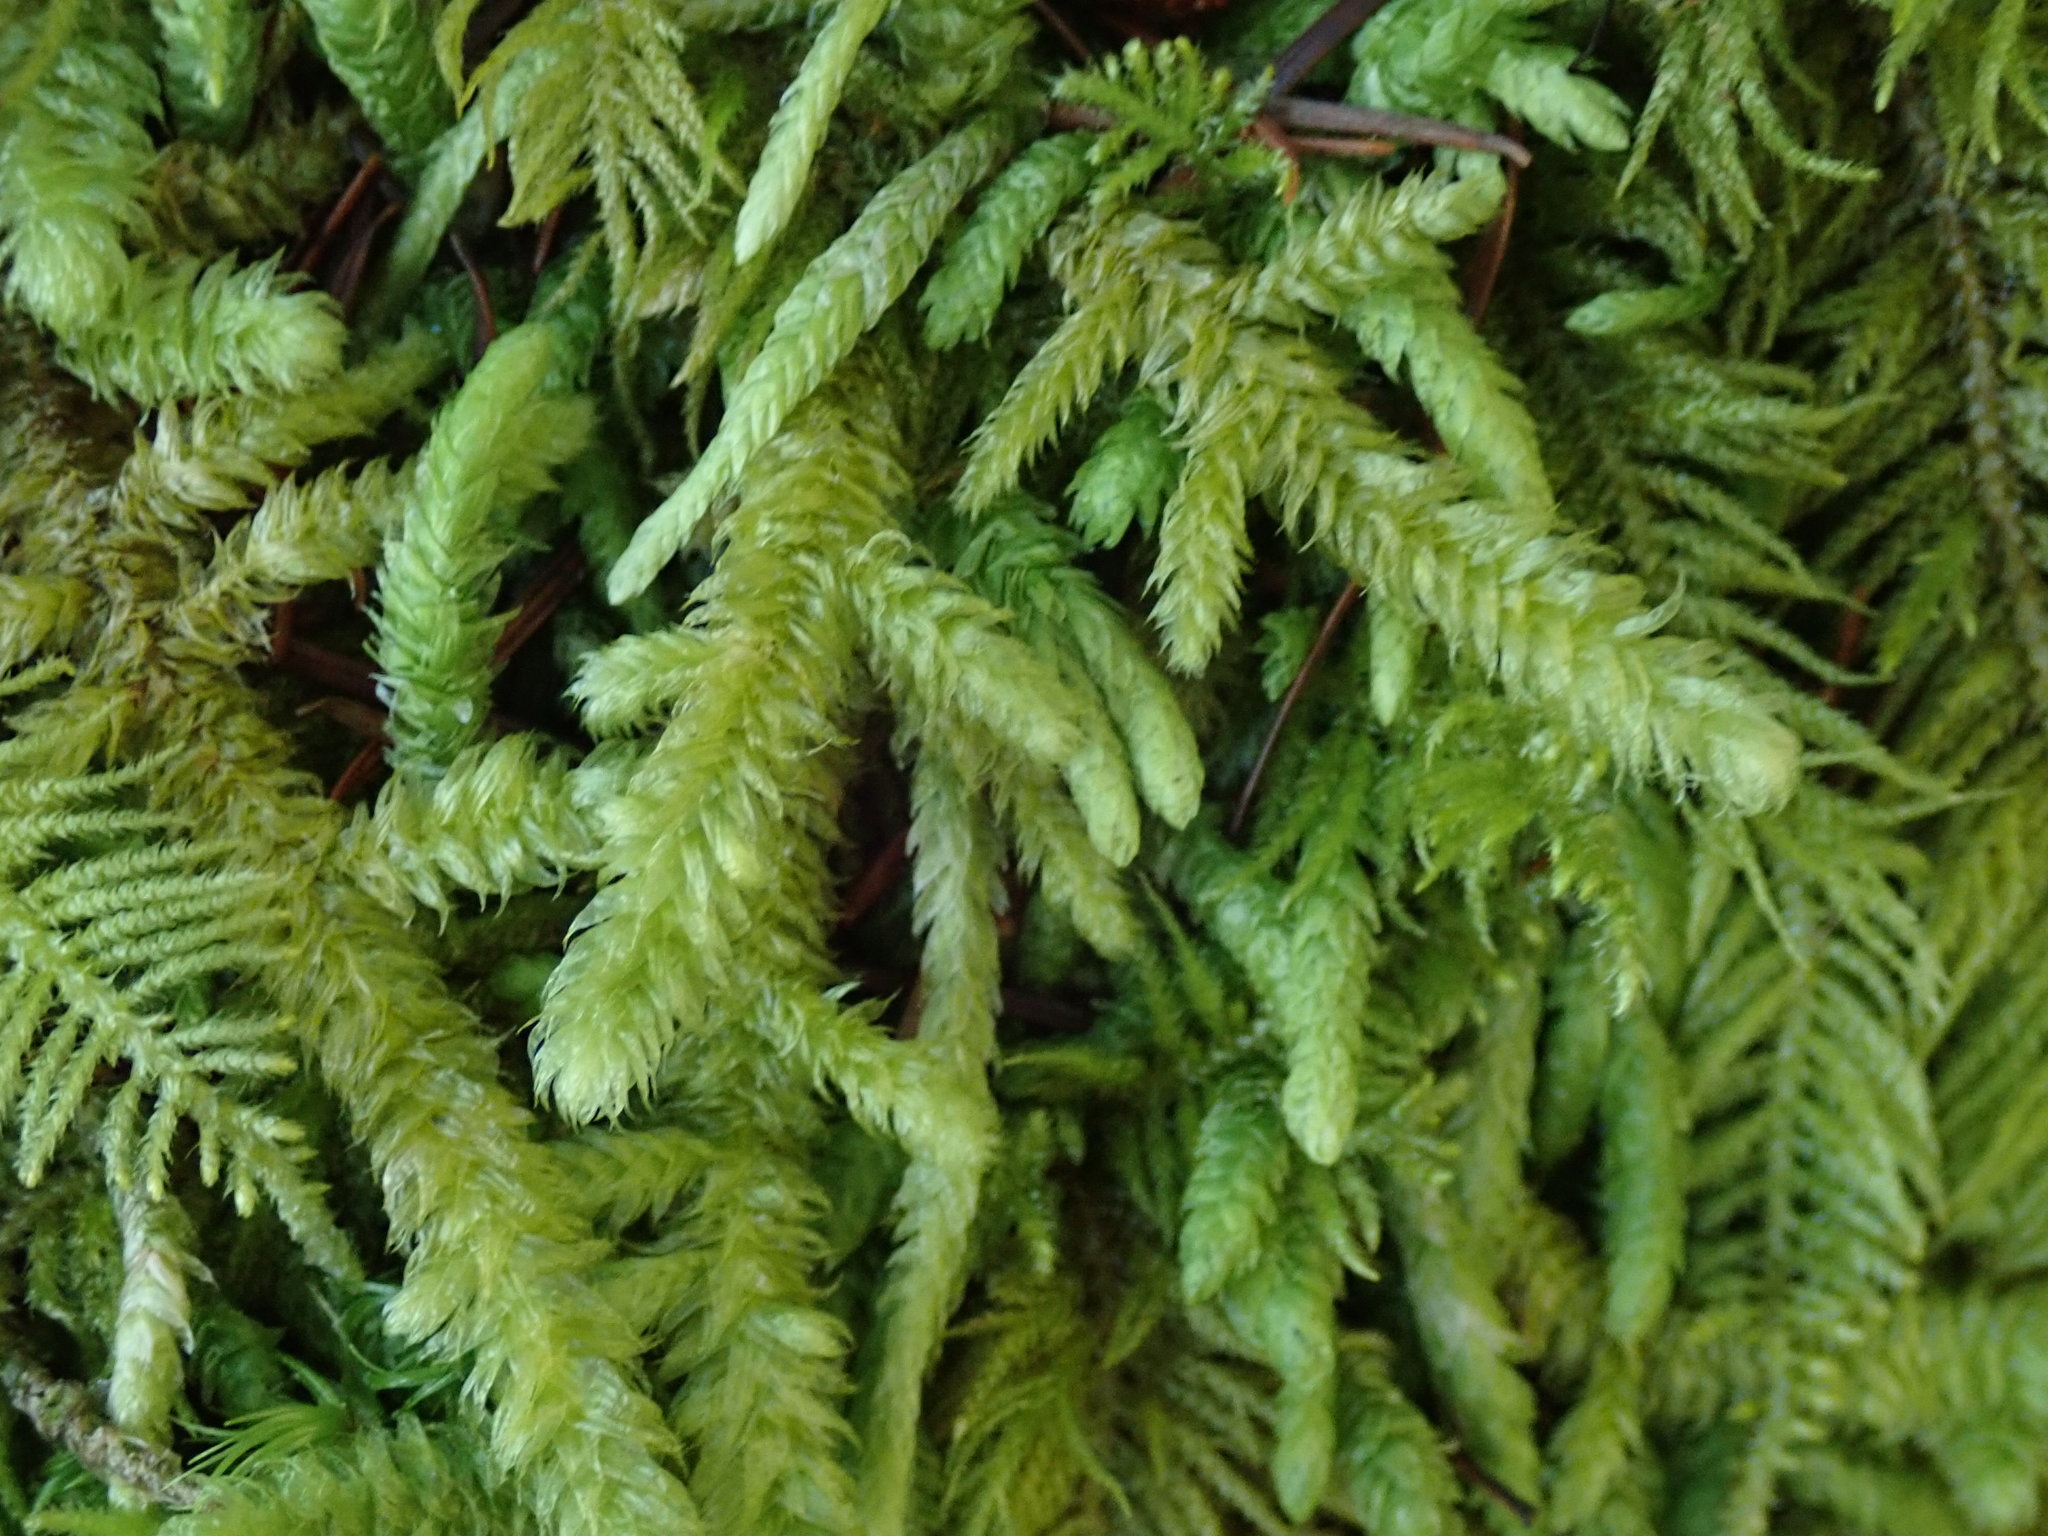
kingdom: Plantae
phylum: Bryophyta
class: Bryopsida
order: Hypnales
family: Hylocomiaceae
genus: Rhytidiopsis
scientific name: Rhytidiopsis robusta
